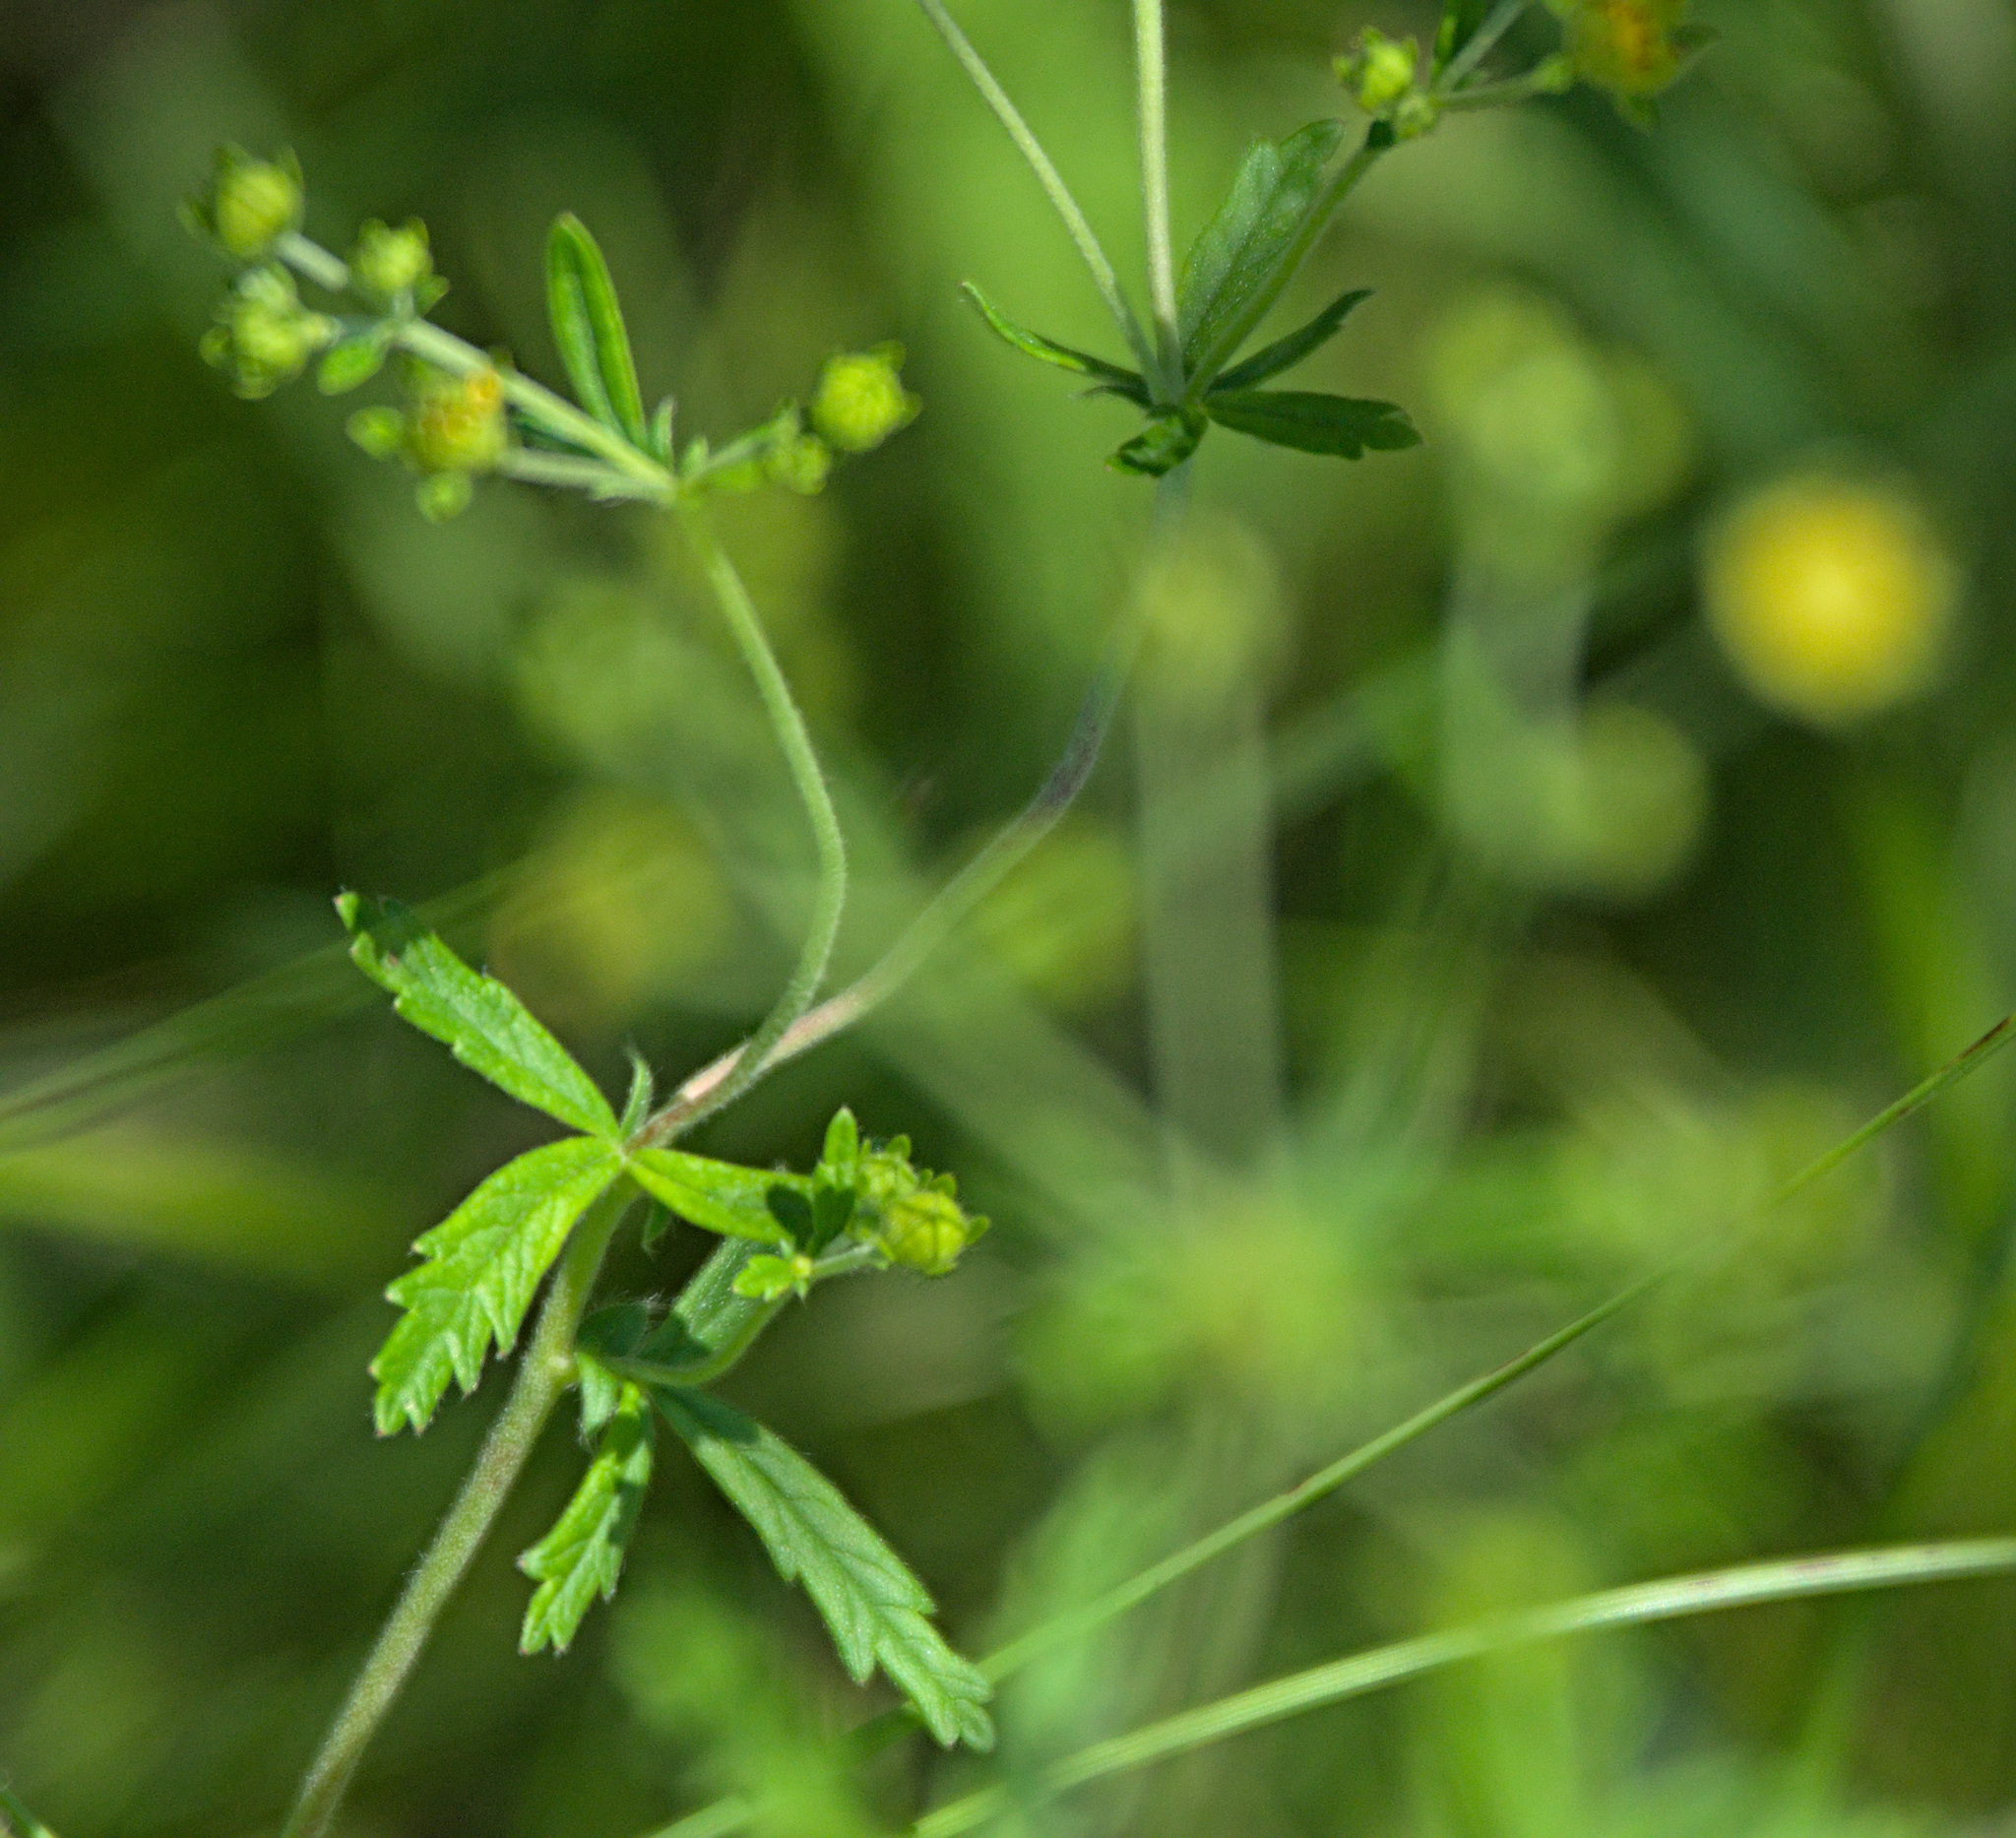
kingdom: Plantae
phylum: Tracheophyta
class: Magnoliopsida
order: Rosales
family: Rosaceae
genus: Potentilla
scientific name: Potentilla argentea
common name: Hoary cinquefoil
